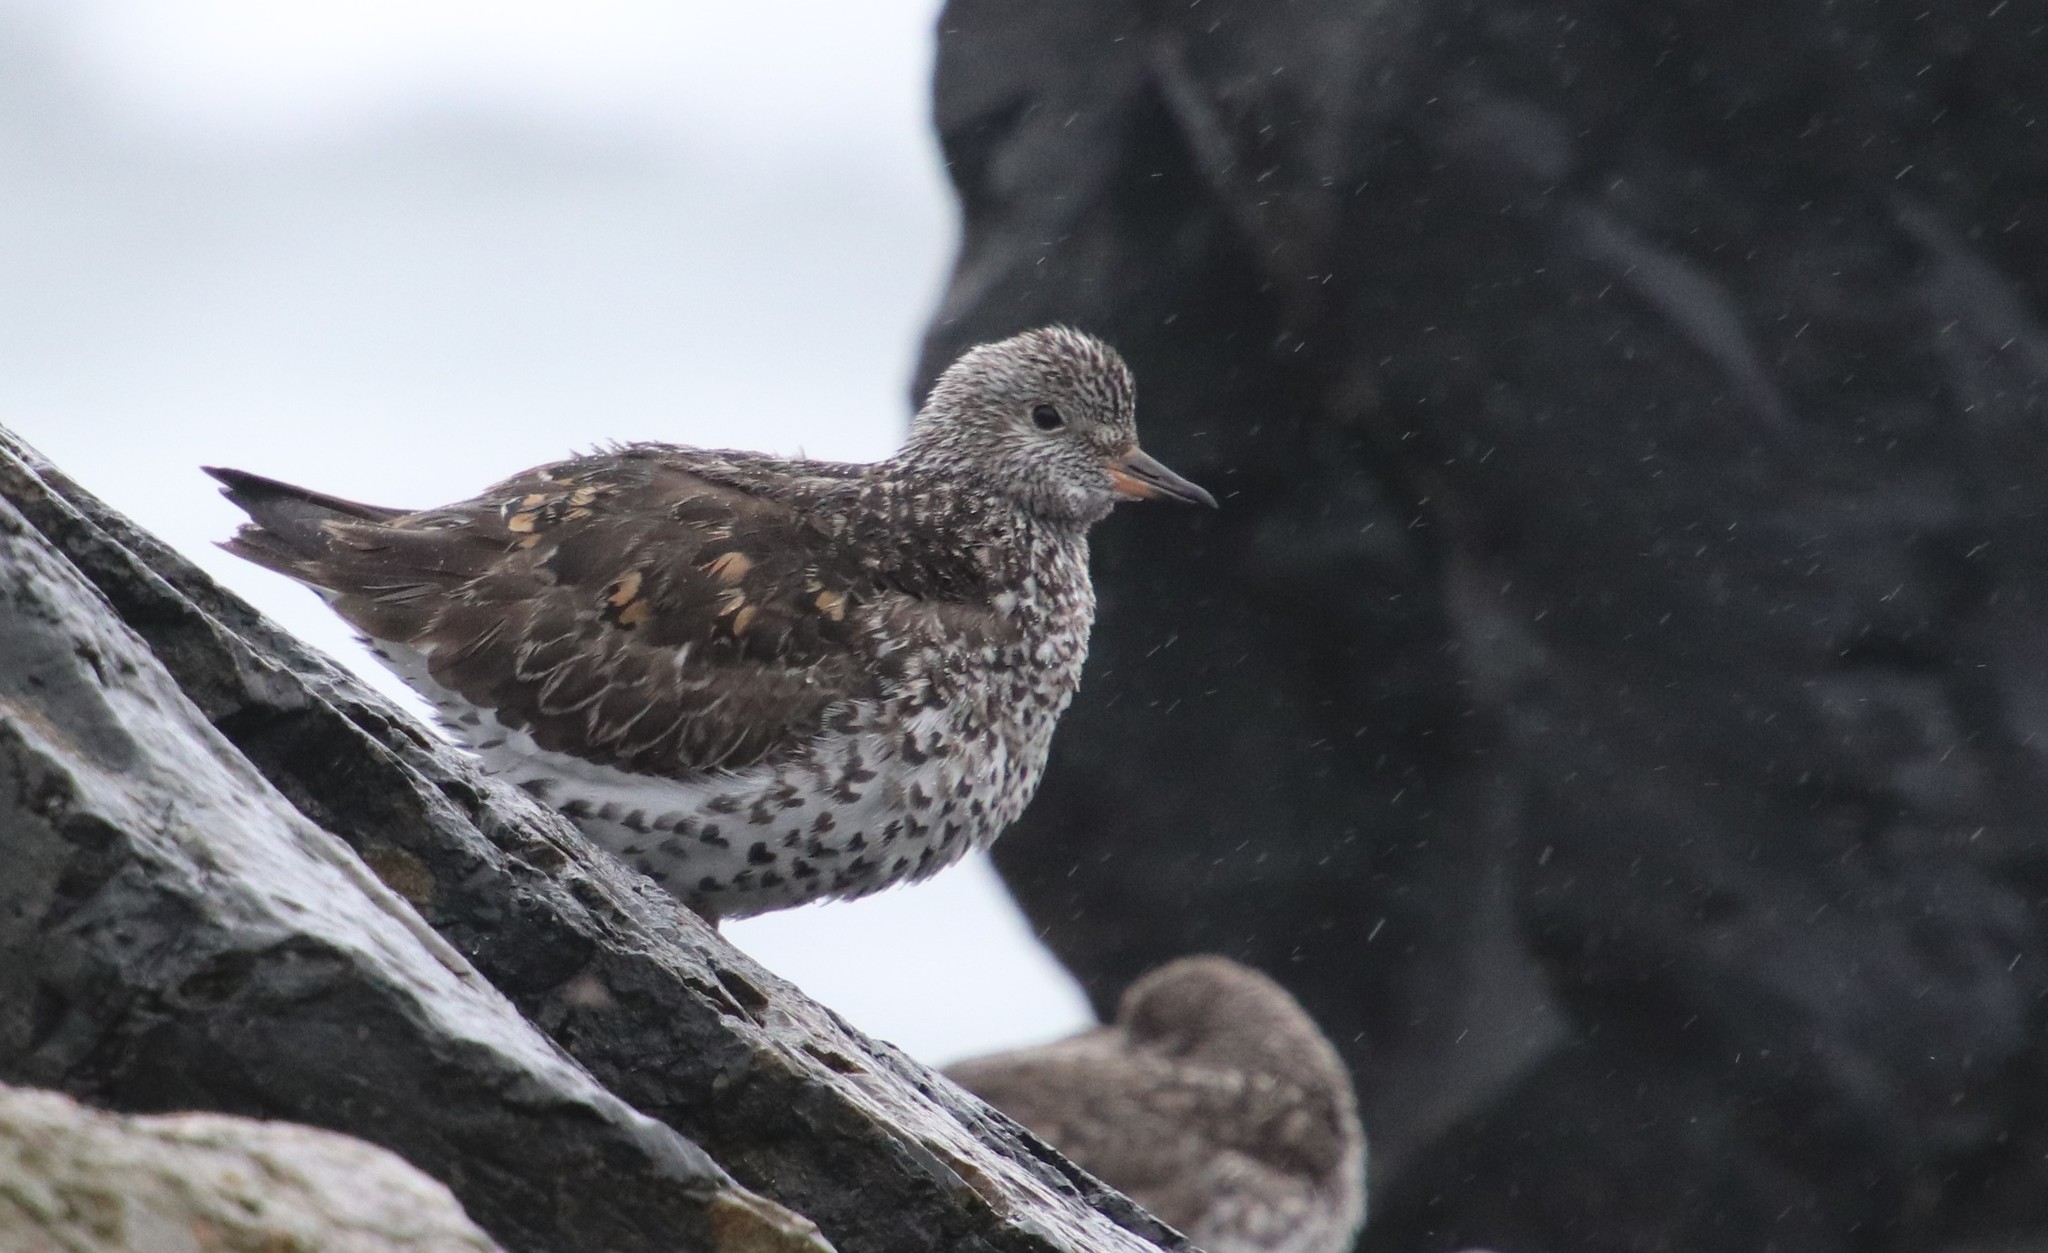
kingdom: Animalia
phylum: Chordata
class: Aves
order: Charadriiformes
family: Scolopacidae
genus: Calidris
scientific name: Calidris virgata
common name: Surfbird
